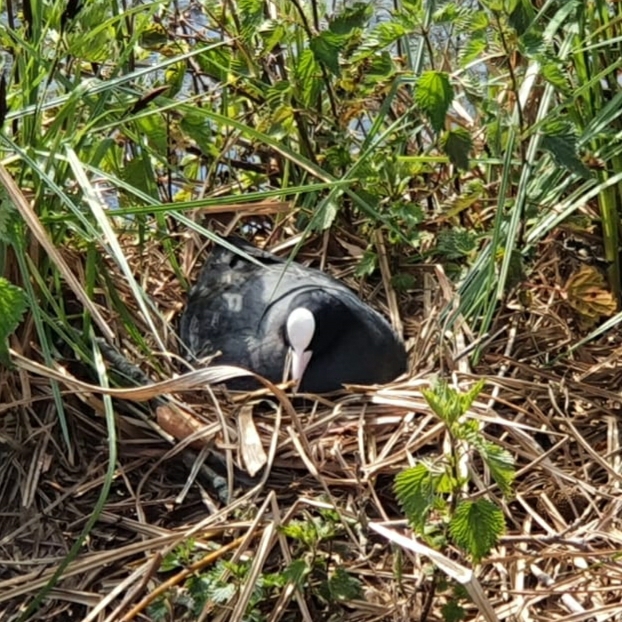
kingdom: Animalia
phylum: Chordata
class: Aves
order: Gruiformes
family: Rallidae
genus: Fulica
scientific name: Fulica atra
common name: Eurasian coot
